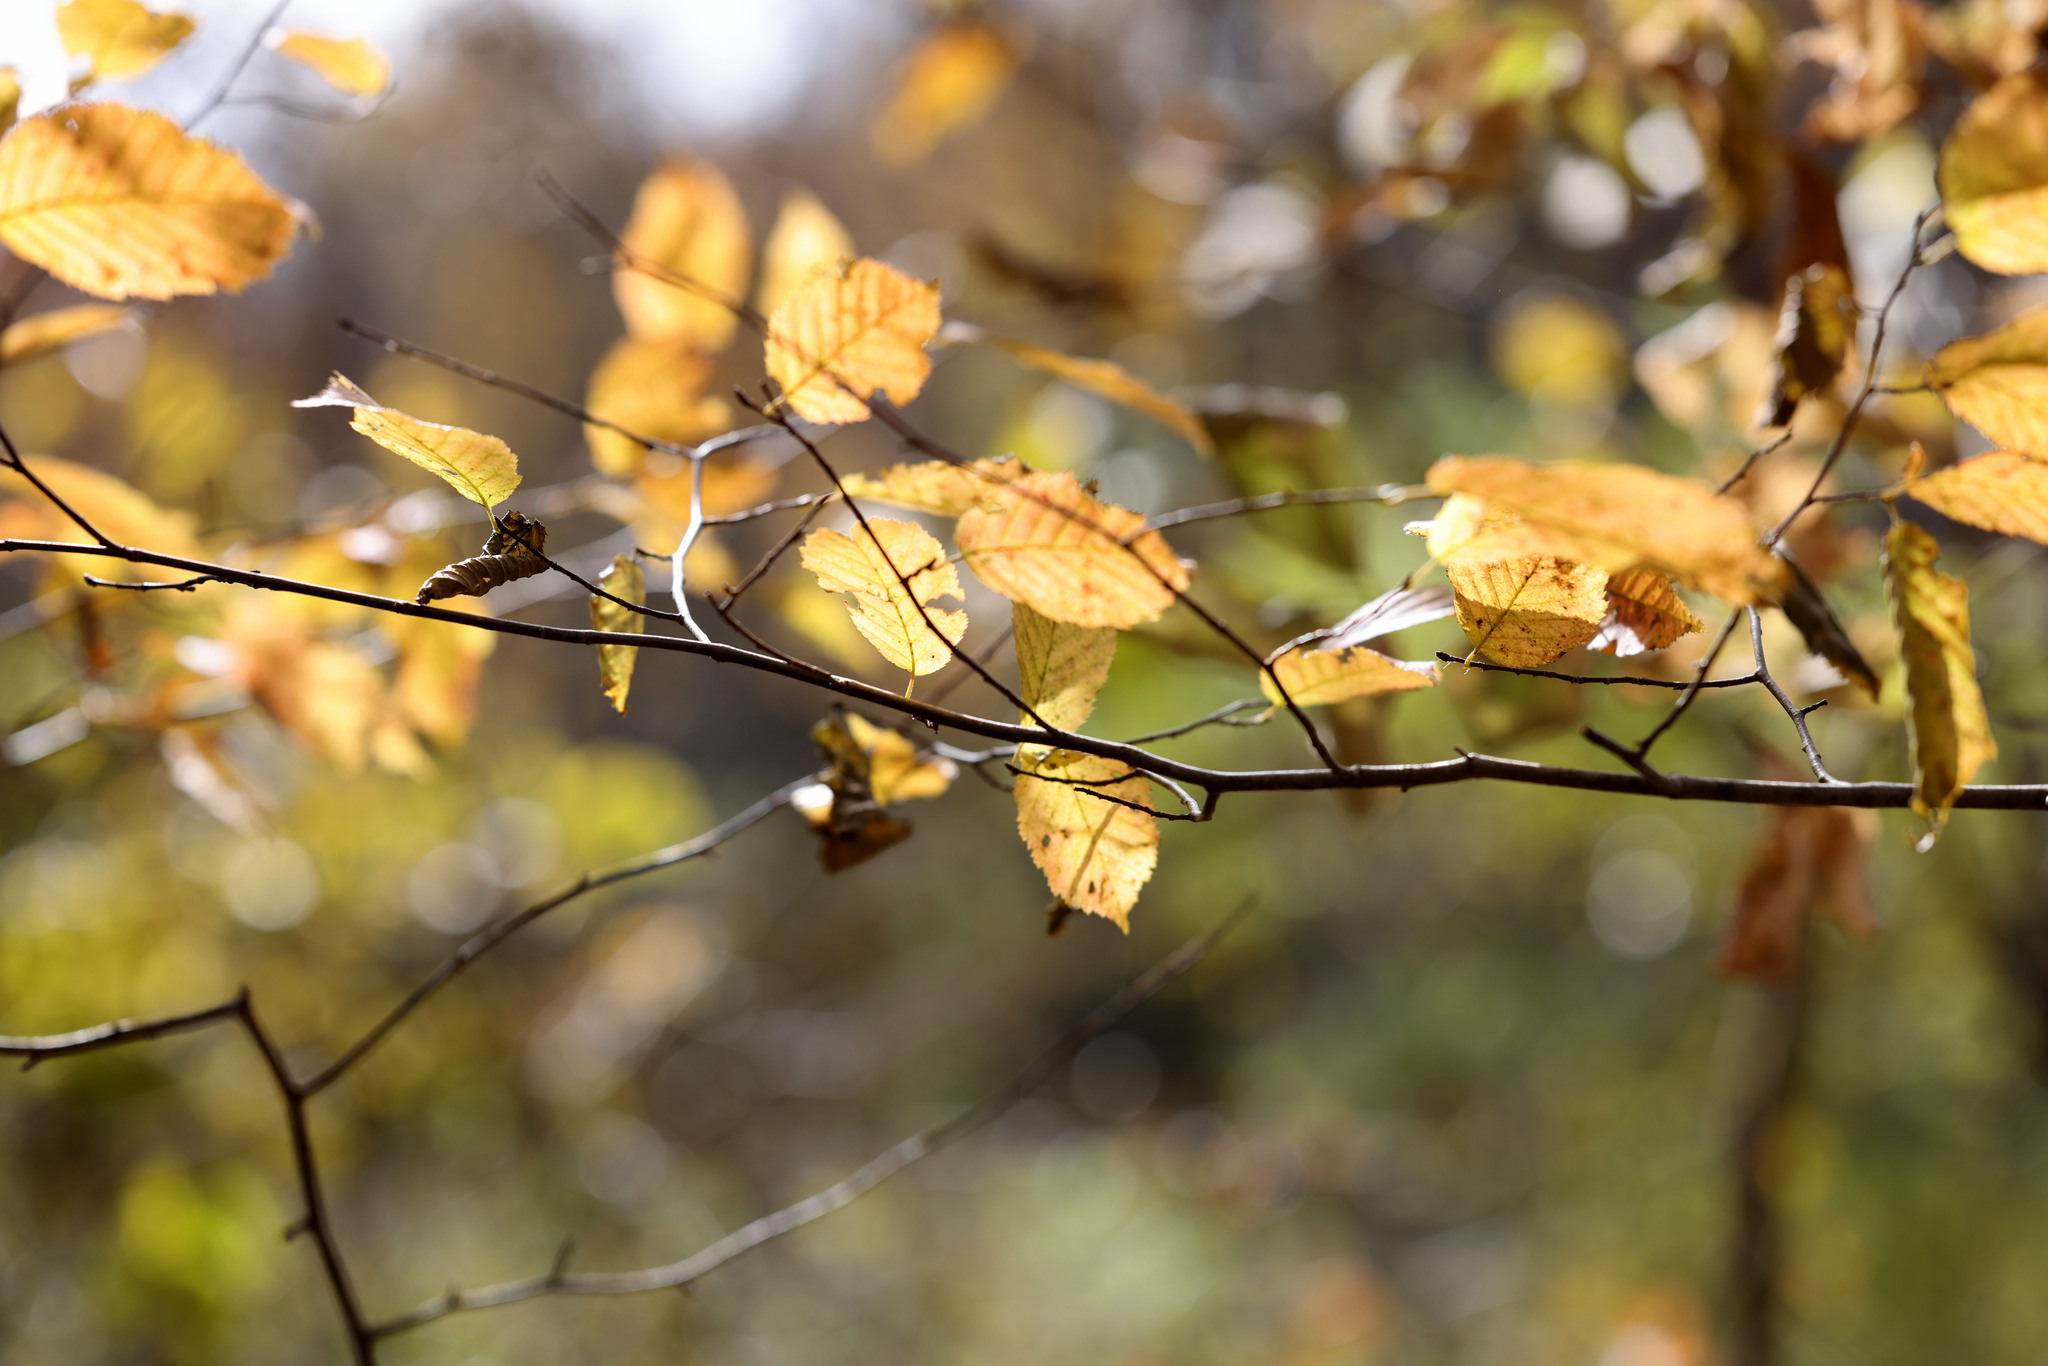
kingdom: Plantae
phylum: Tracheophyta
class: Magnoliopsida
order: Fagales
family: Betulaceae
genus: Carpinus
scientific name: Carpinus caroliniana
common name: American hornbeam
